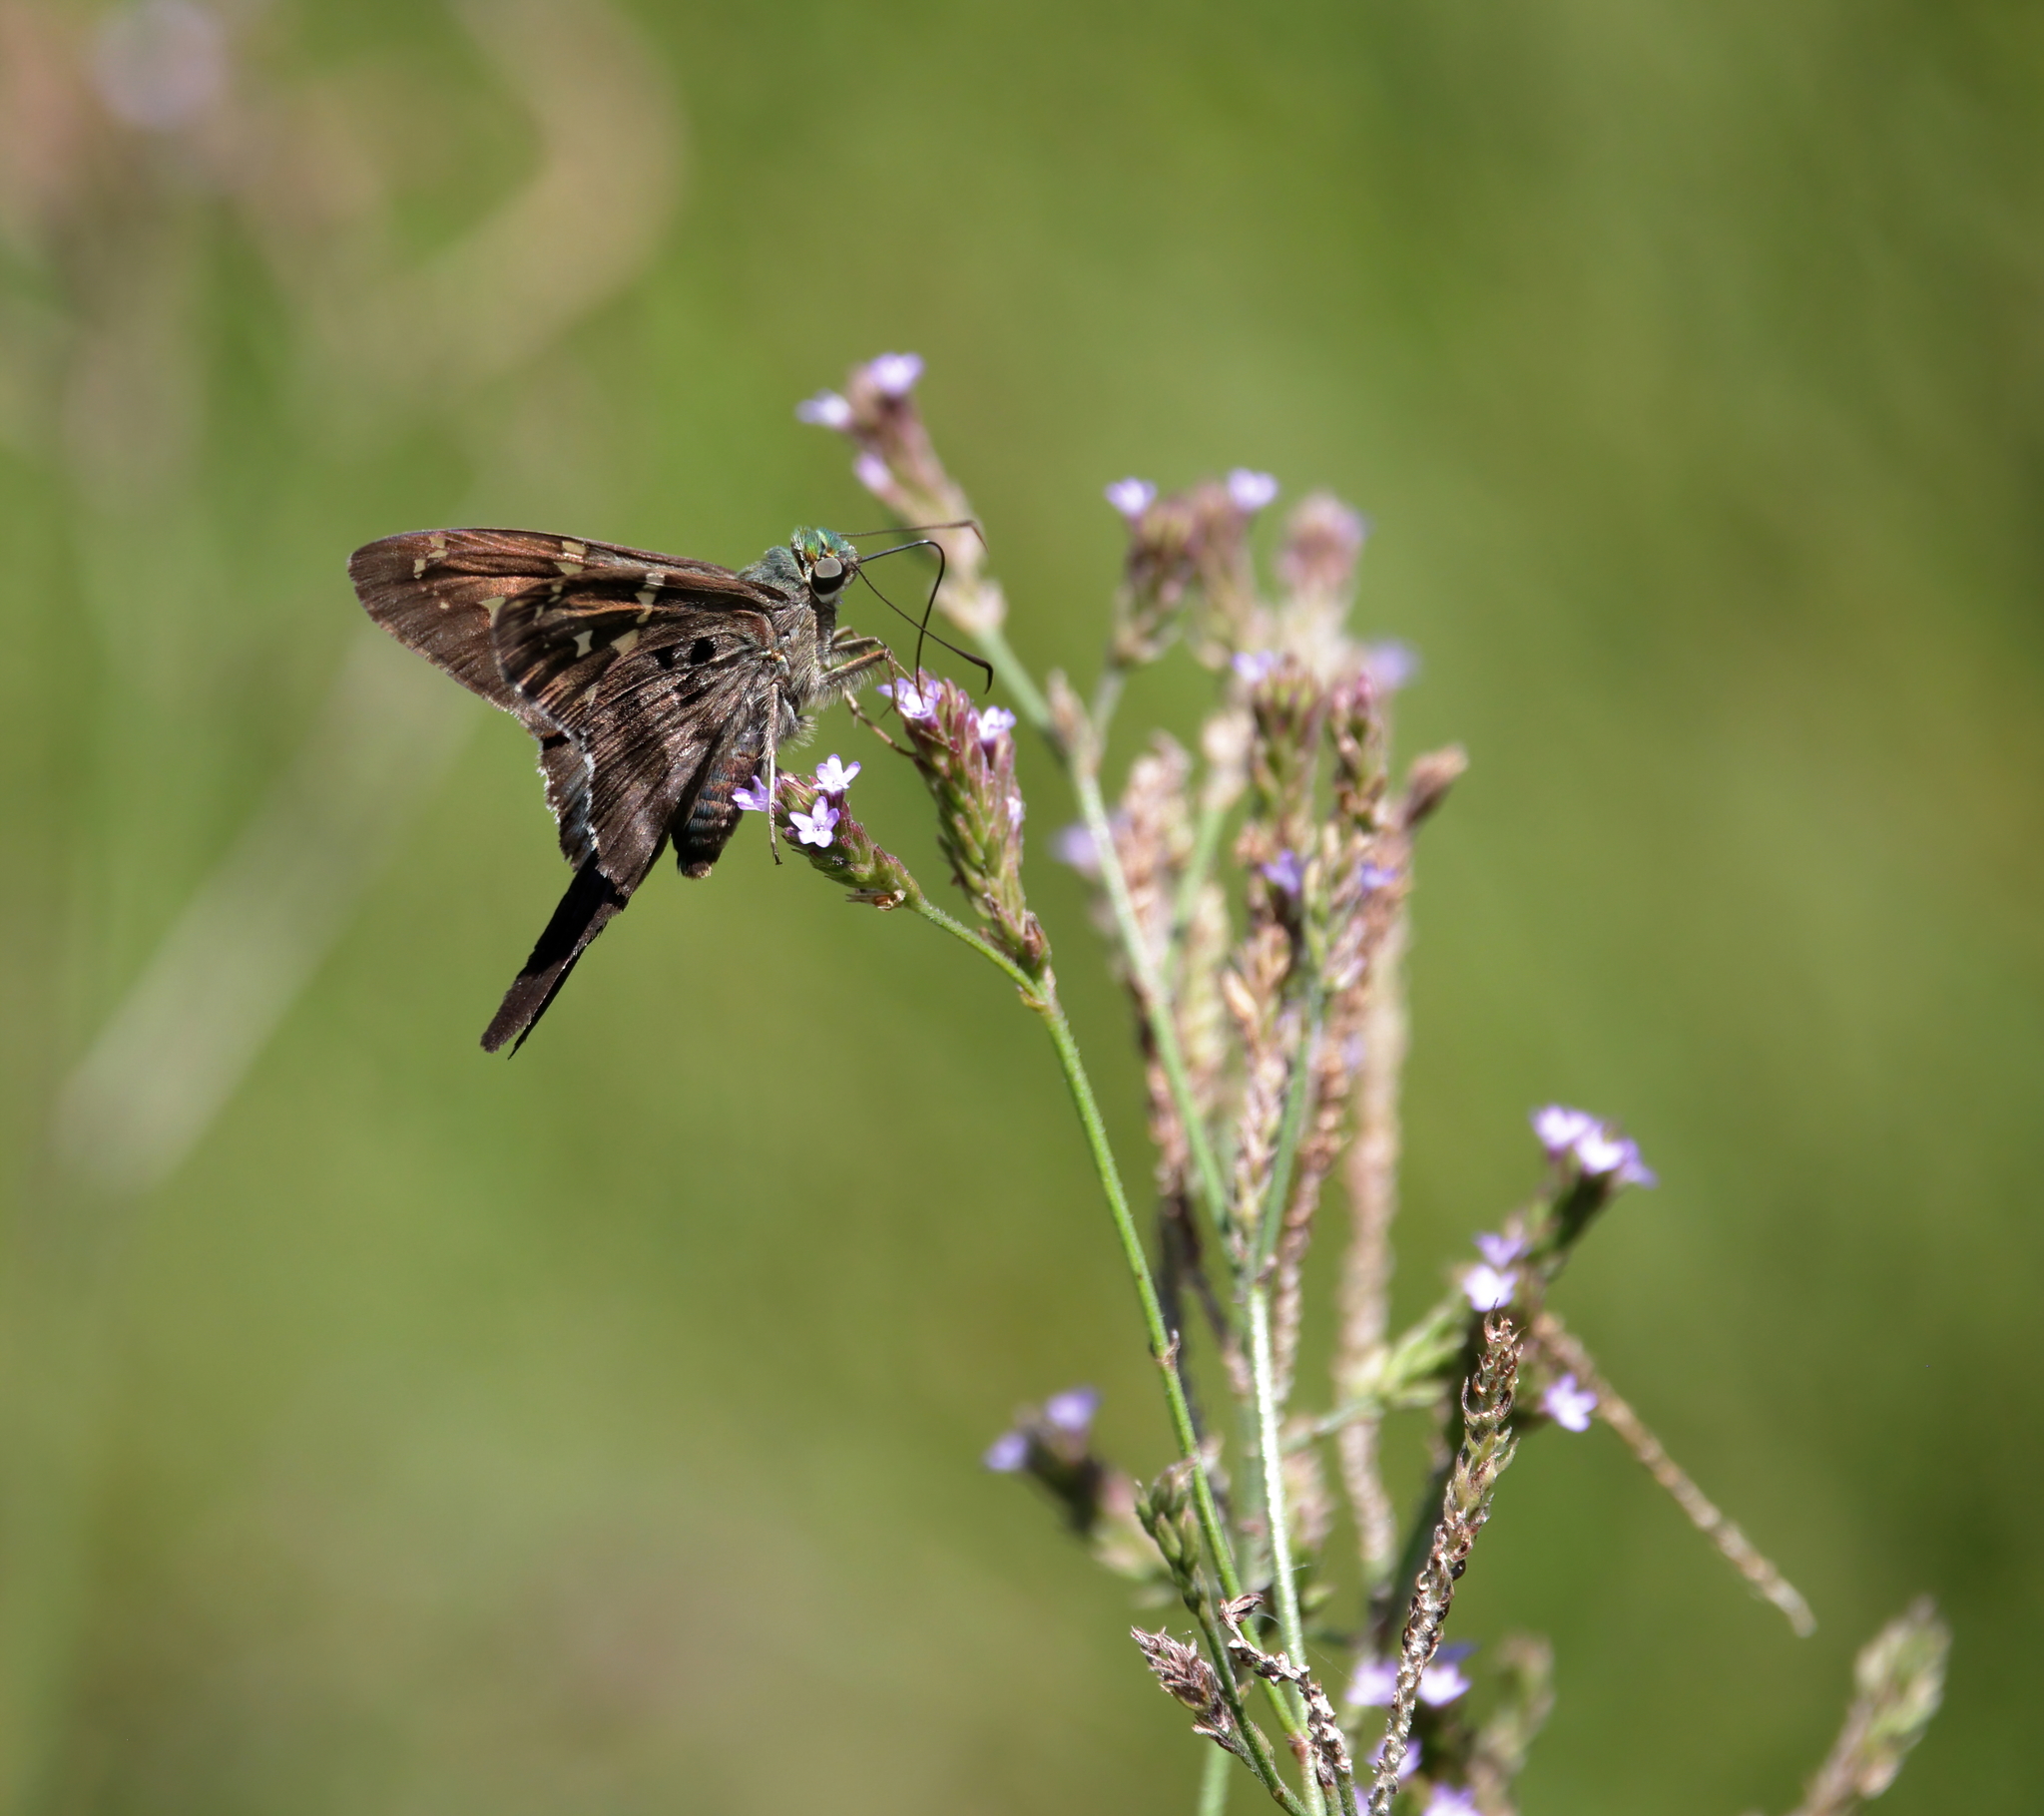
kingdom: Animalia
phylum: Arthropoda
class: Insecta
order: Lepidoptera
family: Hesperiidae
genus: Urbanus
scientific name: Urbanus proteus
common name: Long-tailed skipper
